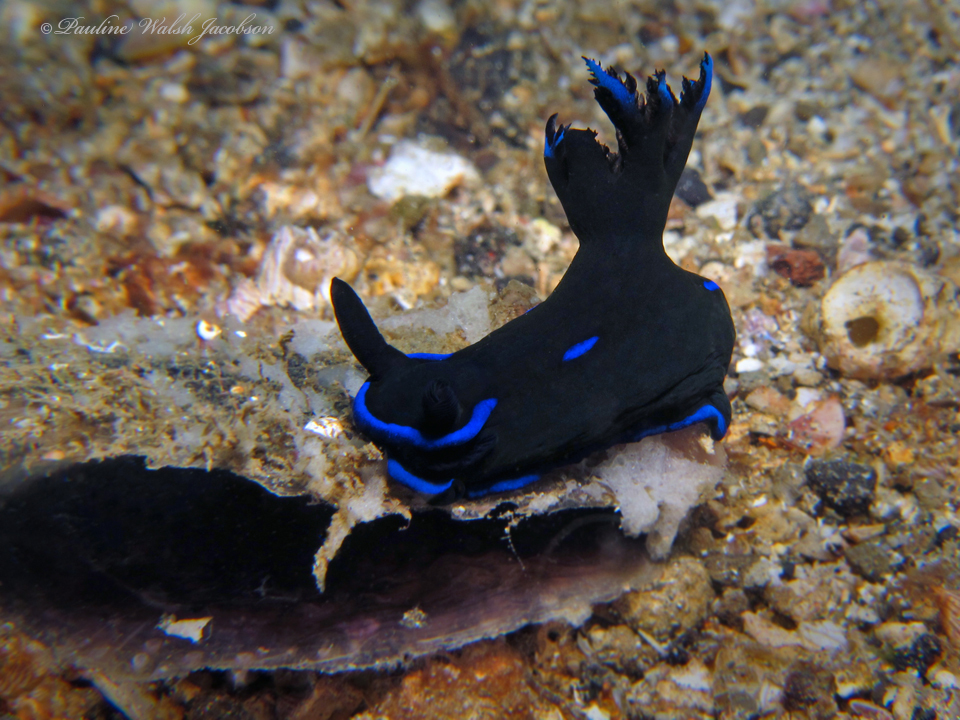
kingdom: Animalia
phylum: Mollusca
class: Gastropoda
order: Nudibranchia
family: Polyceridae
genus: Tambja
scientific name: Tambja morosa
